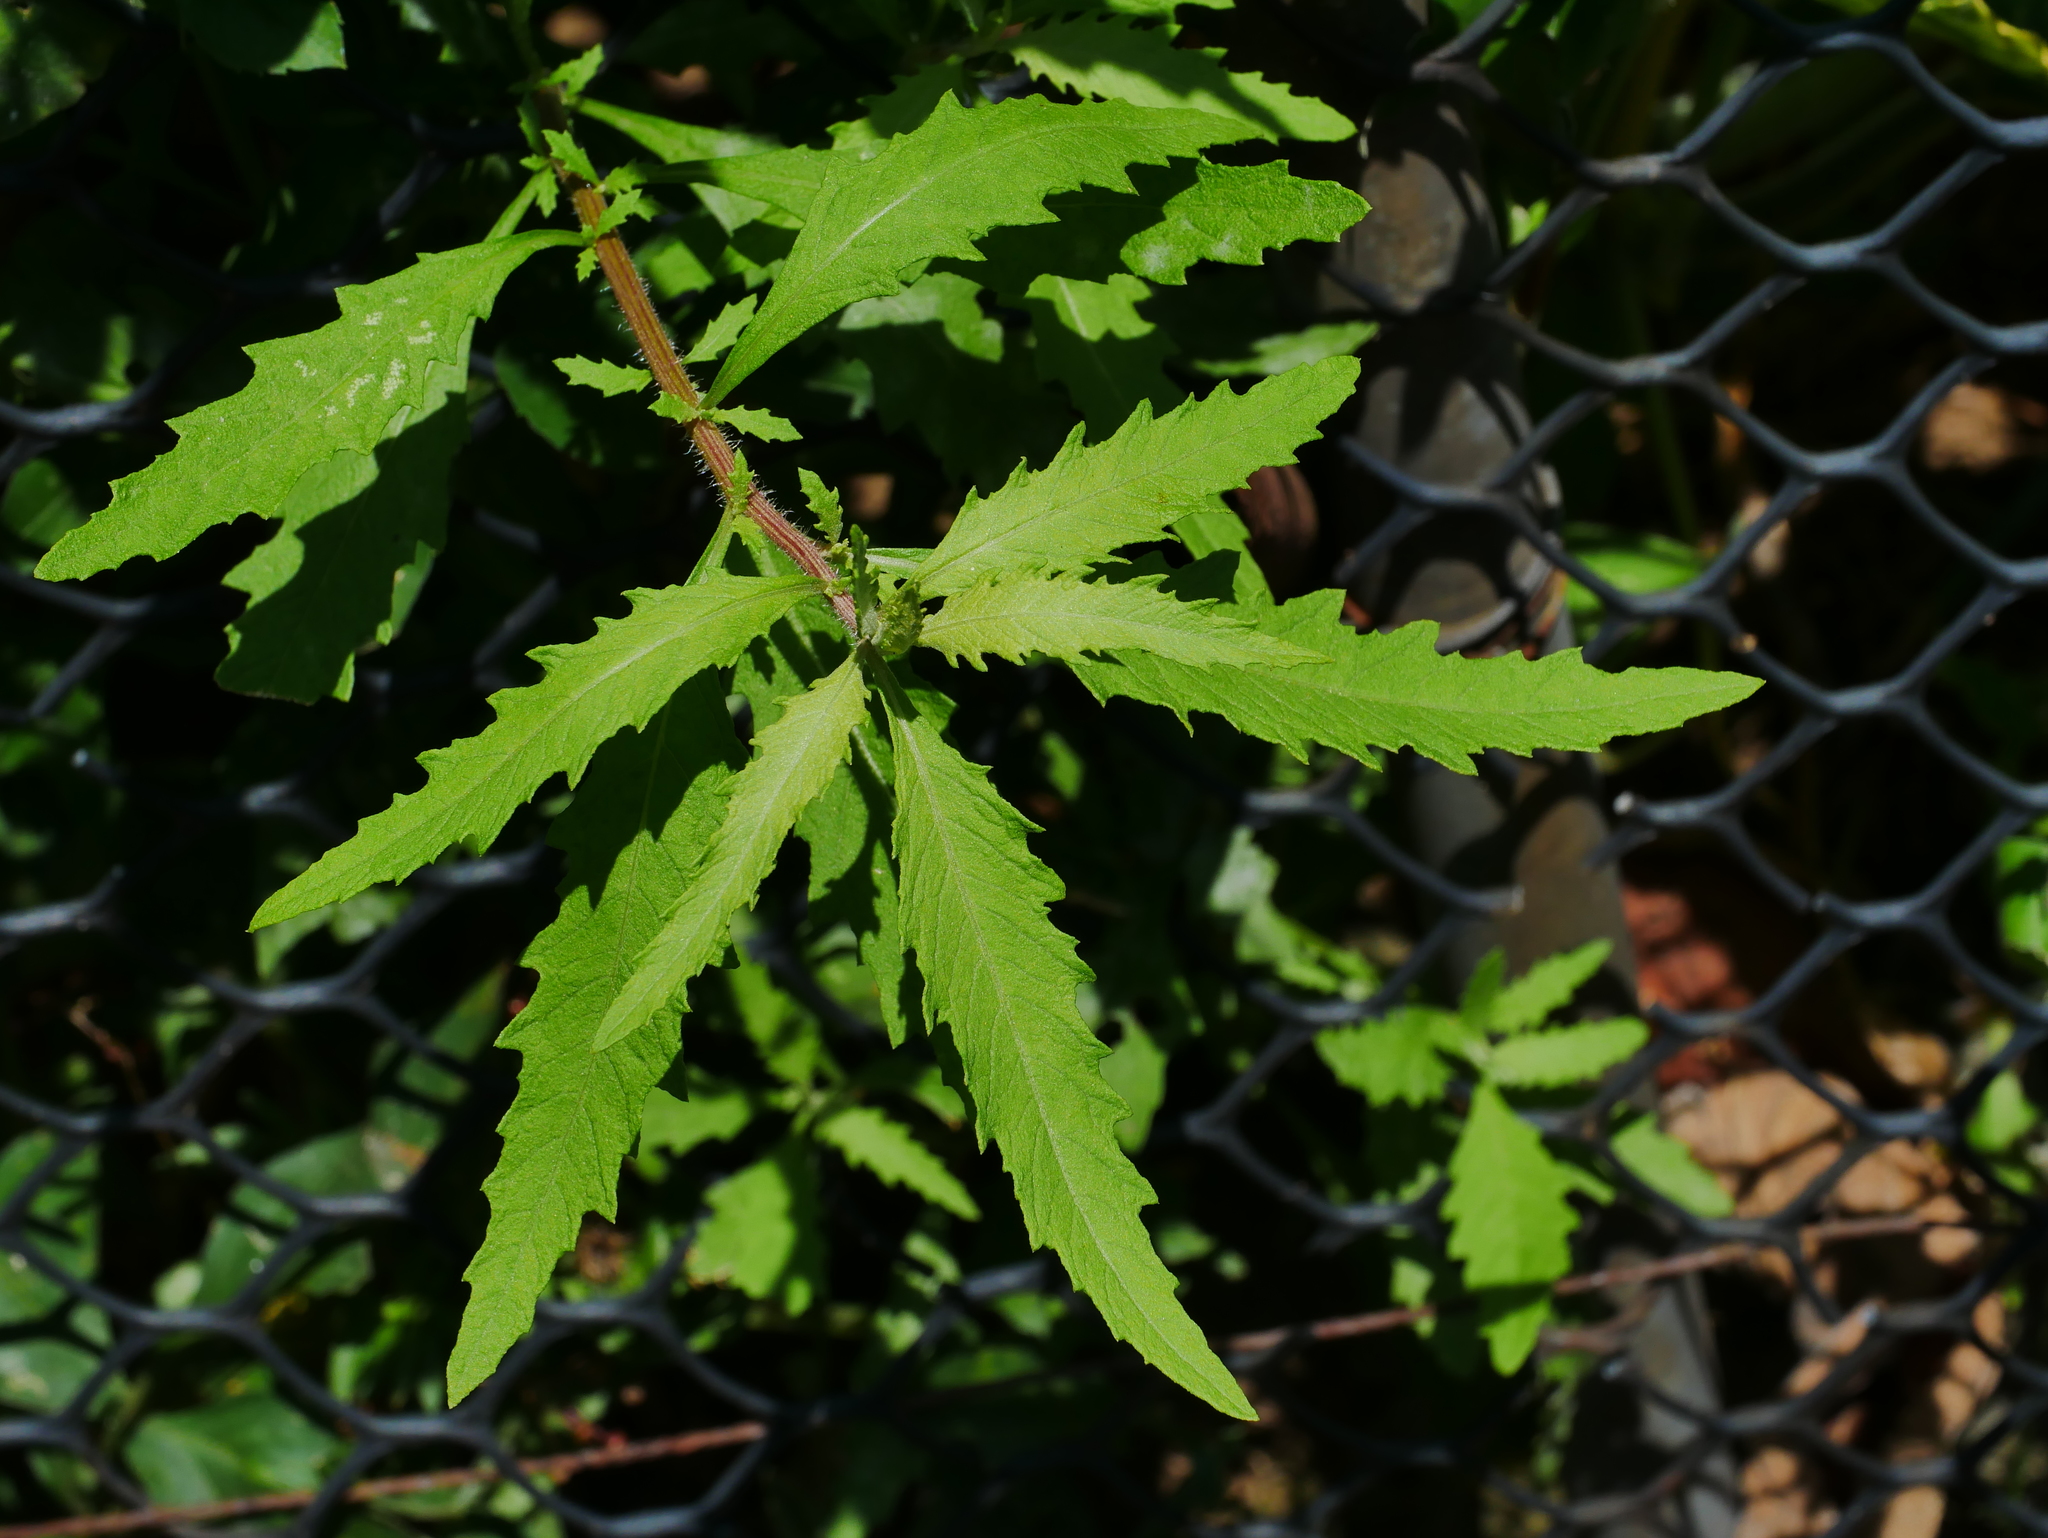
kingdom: Plantae
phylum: Tracheophyta
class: Magnoliopsida
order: Caryophyllales
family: Amaranthaceae
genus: Dysphania
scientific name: Dysphania ambrosioides
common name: Wormseed
